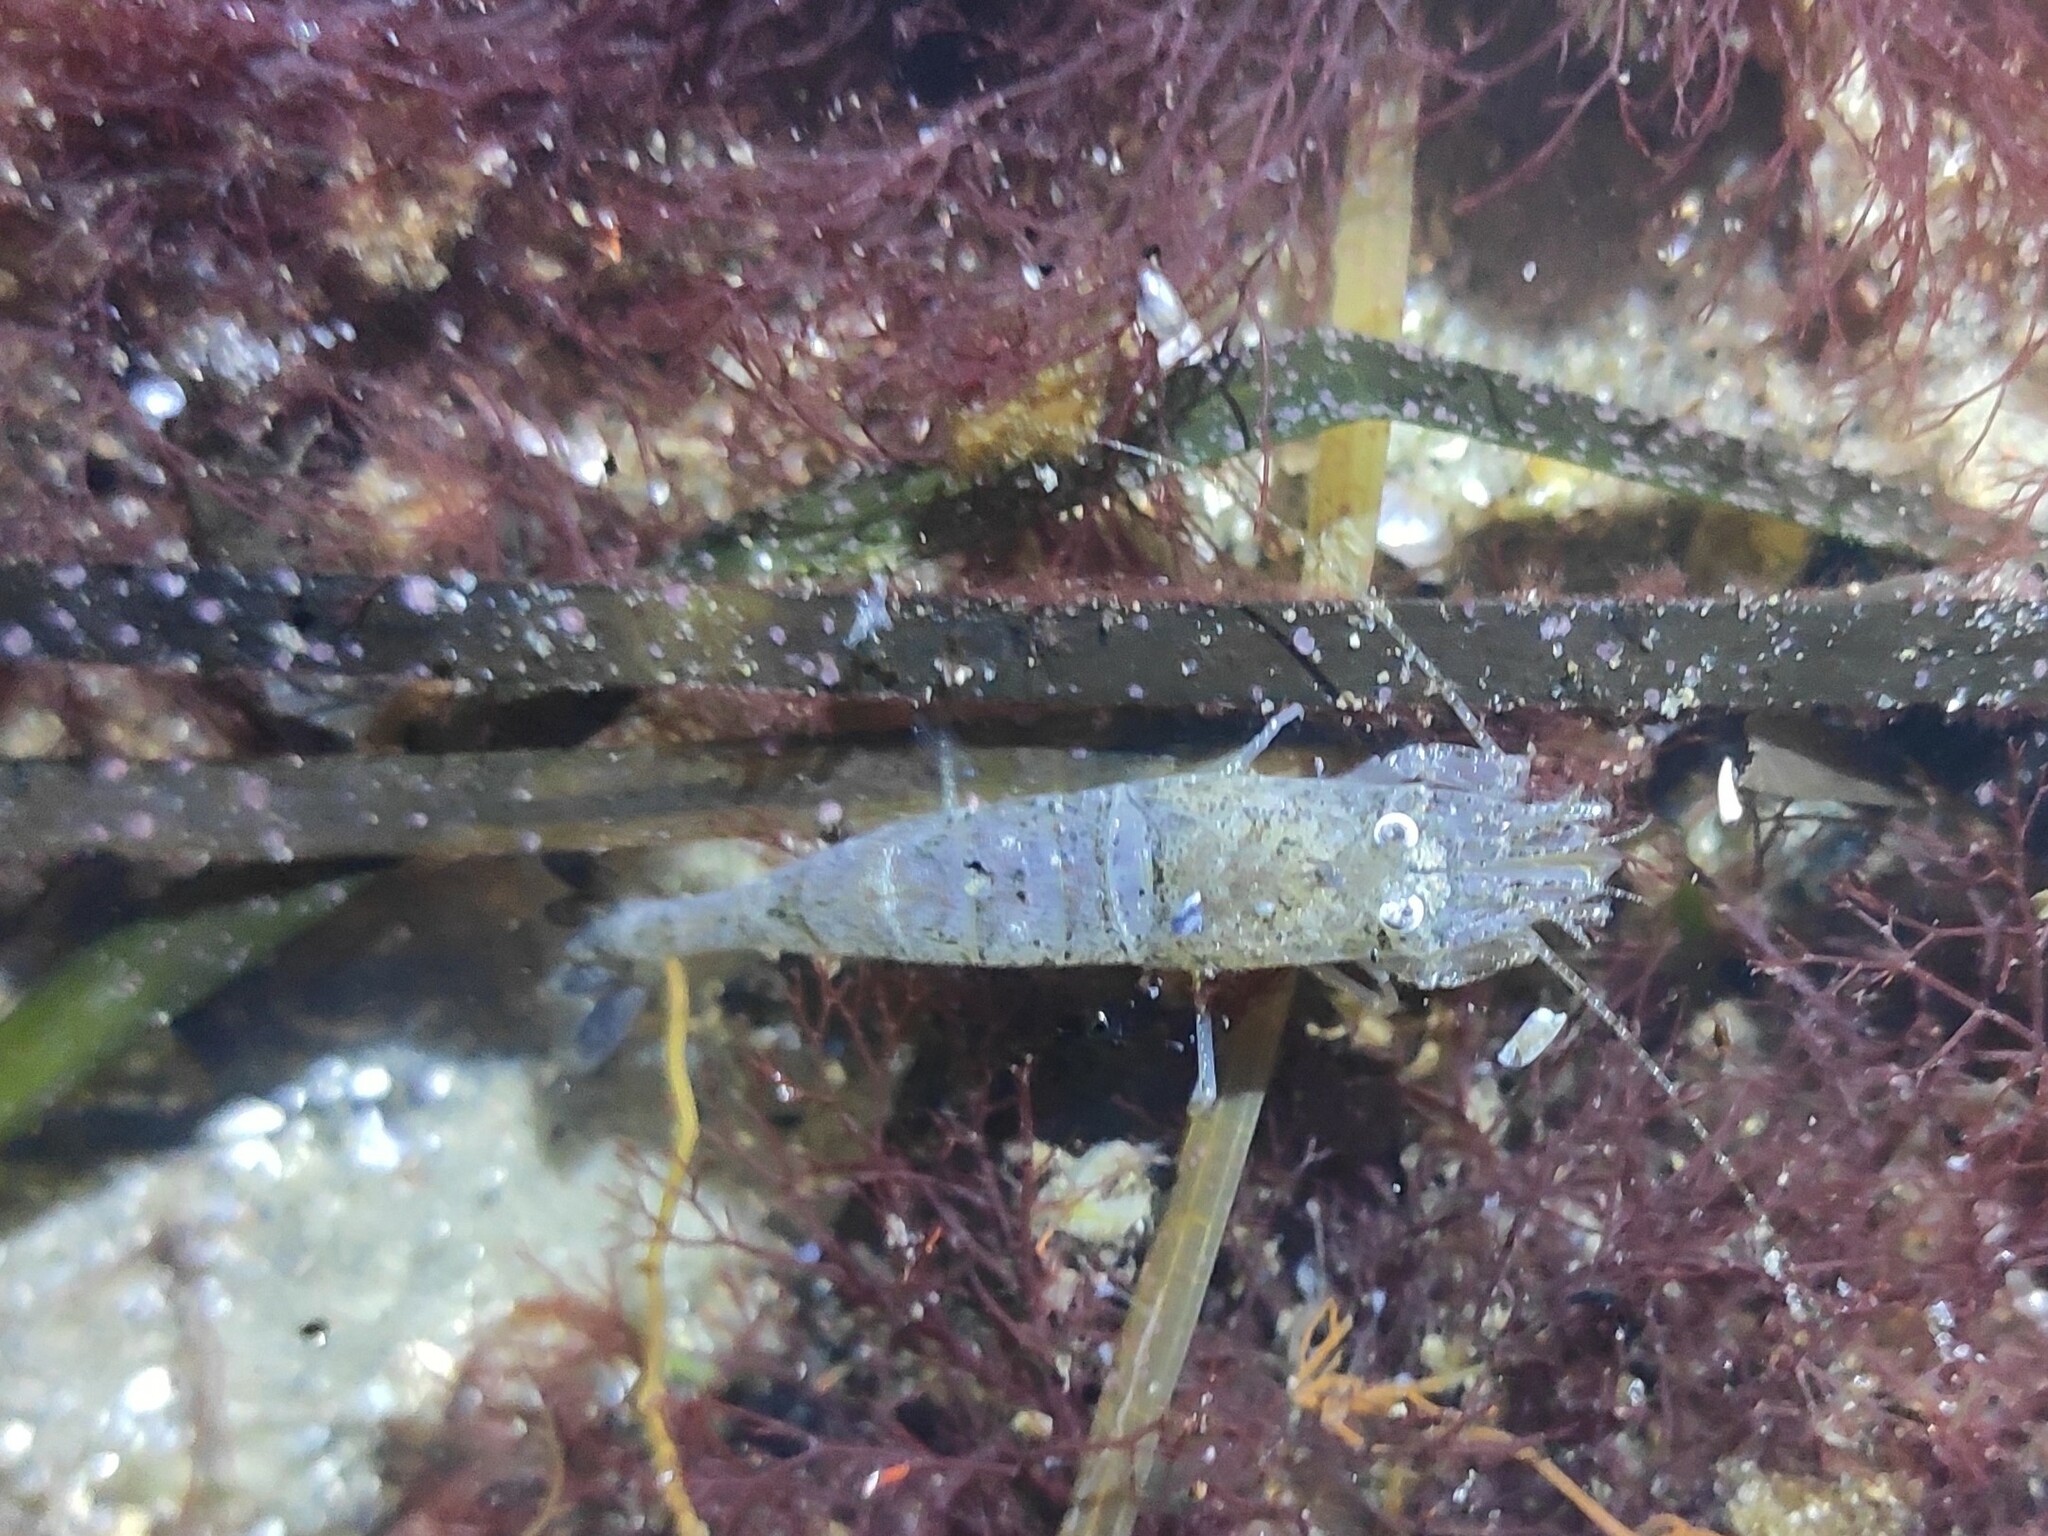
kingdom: Animalia
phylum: Arthropoda
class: Malacostraca
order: Decapoda
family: Crangonidae
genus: Crangon
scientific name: Crangon crangon
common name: Brown shrimp
